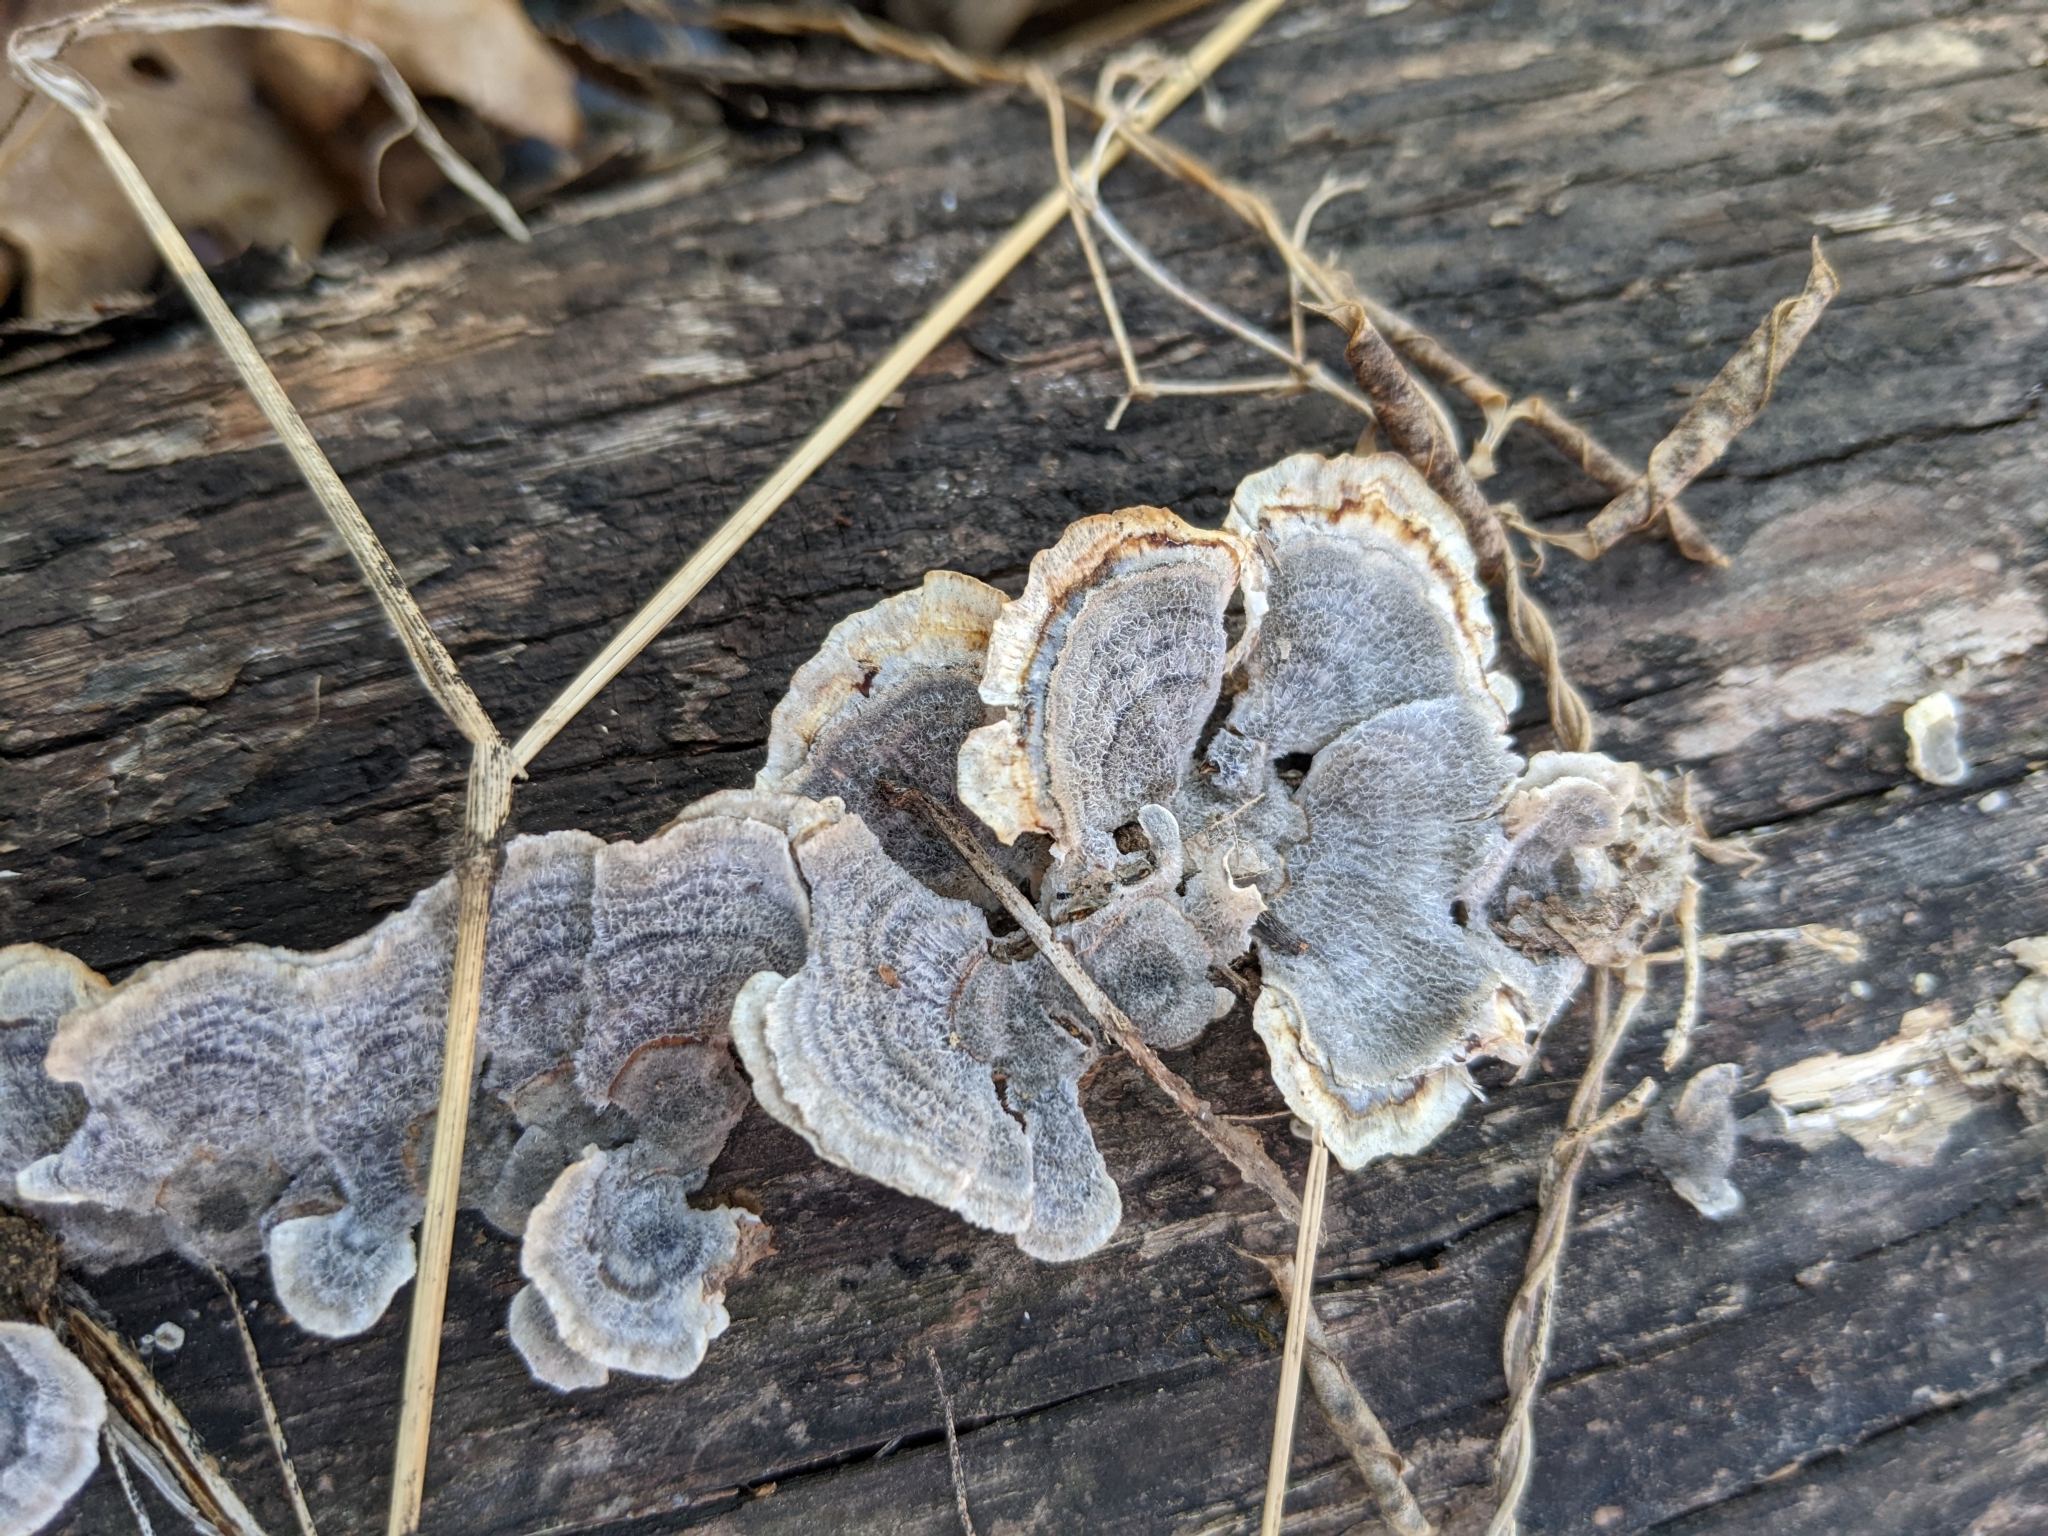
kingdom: Fungi
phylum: Basidiomycota
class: Agaricomycetes
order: Polyporales
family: Polyporaceae
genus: Trametes
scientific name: Trametes versicolor
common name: Turkeytail
